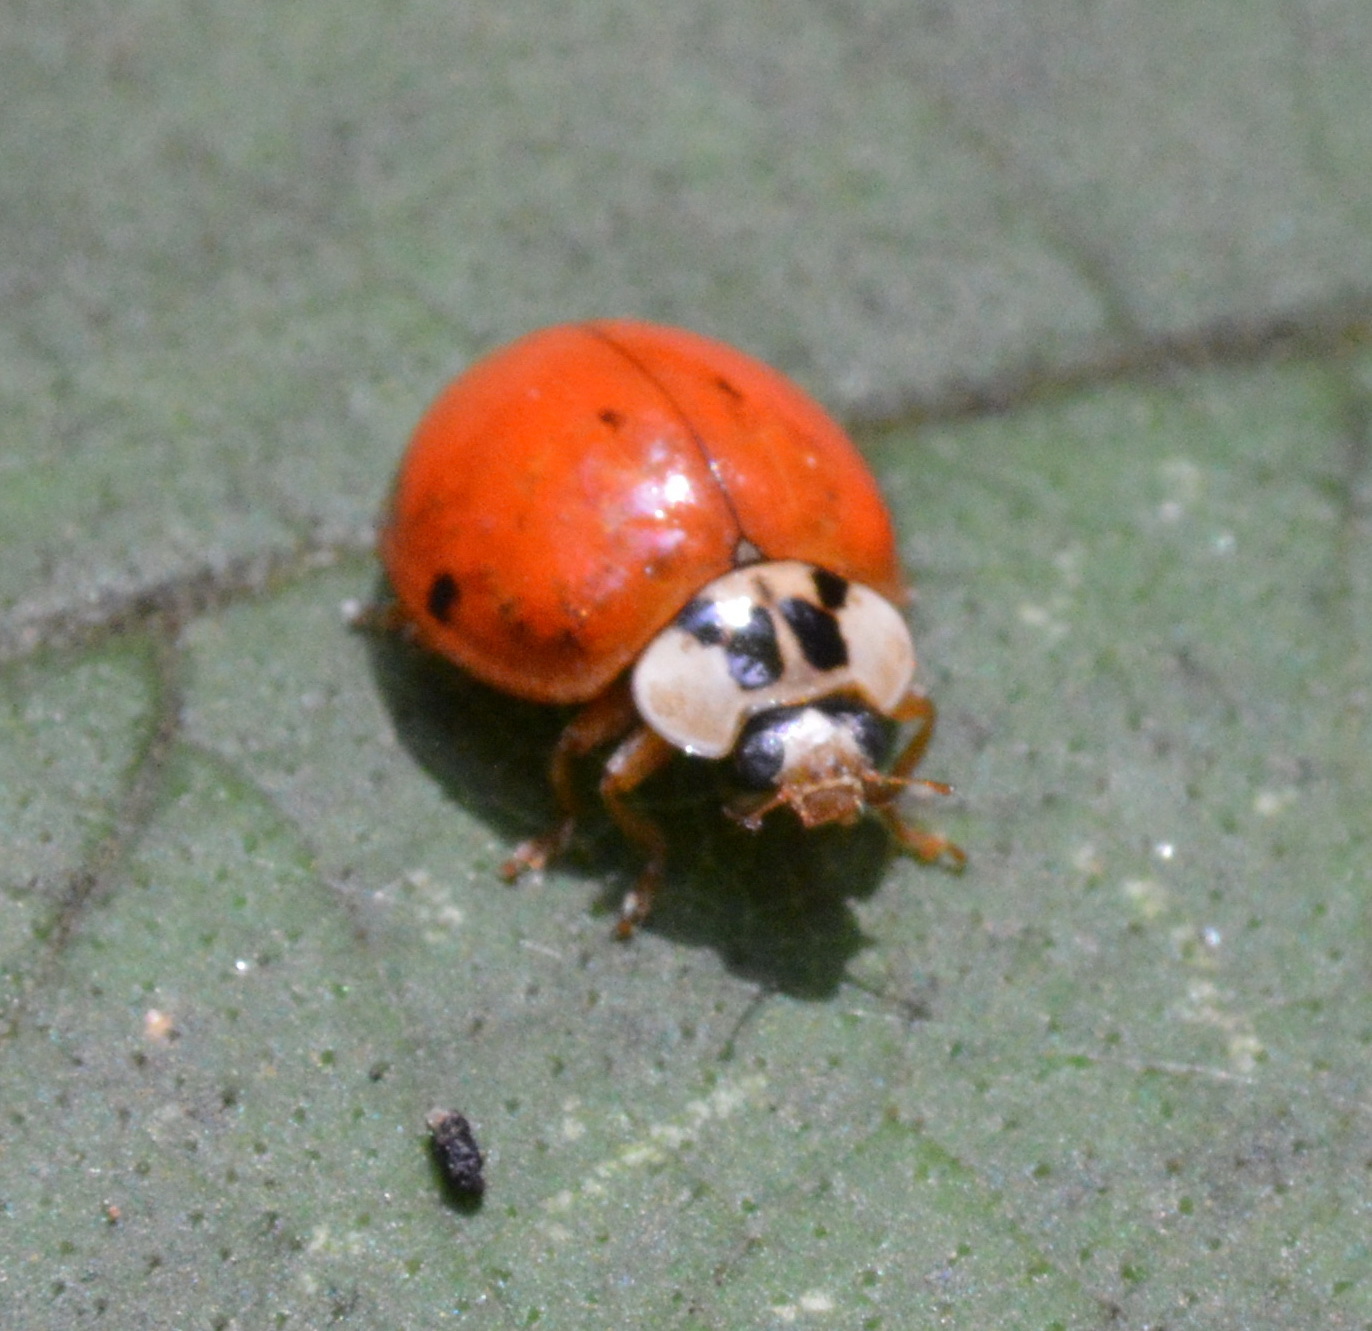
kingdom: Animalia
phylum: Arthropoda
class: Insecta
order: Coleoptera
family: Coccinellidae
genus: Harmonia
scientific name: Harmonia axyridis
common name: Harlequin ladybird
